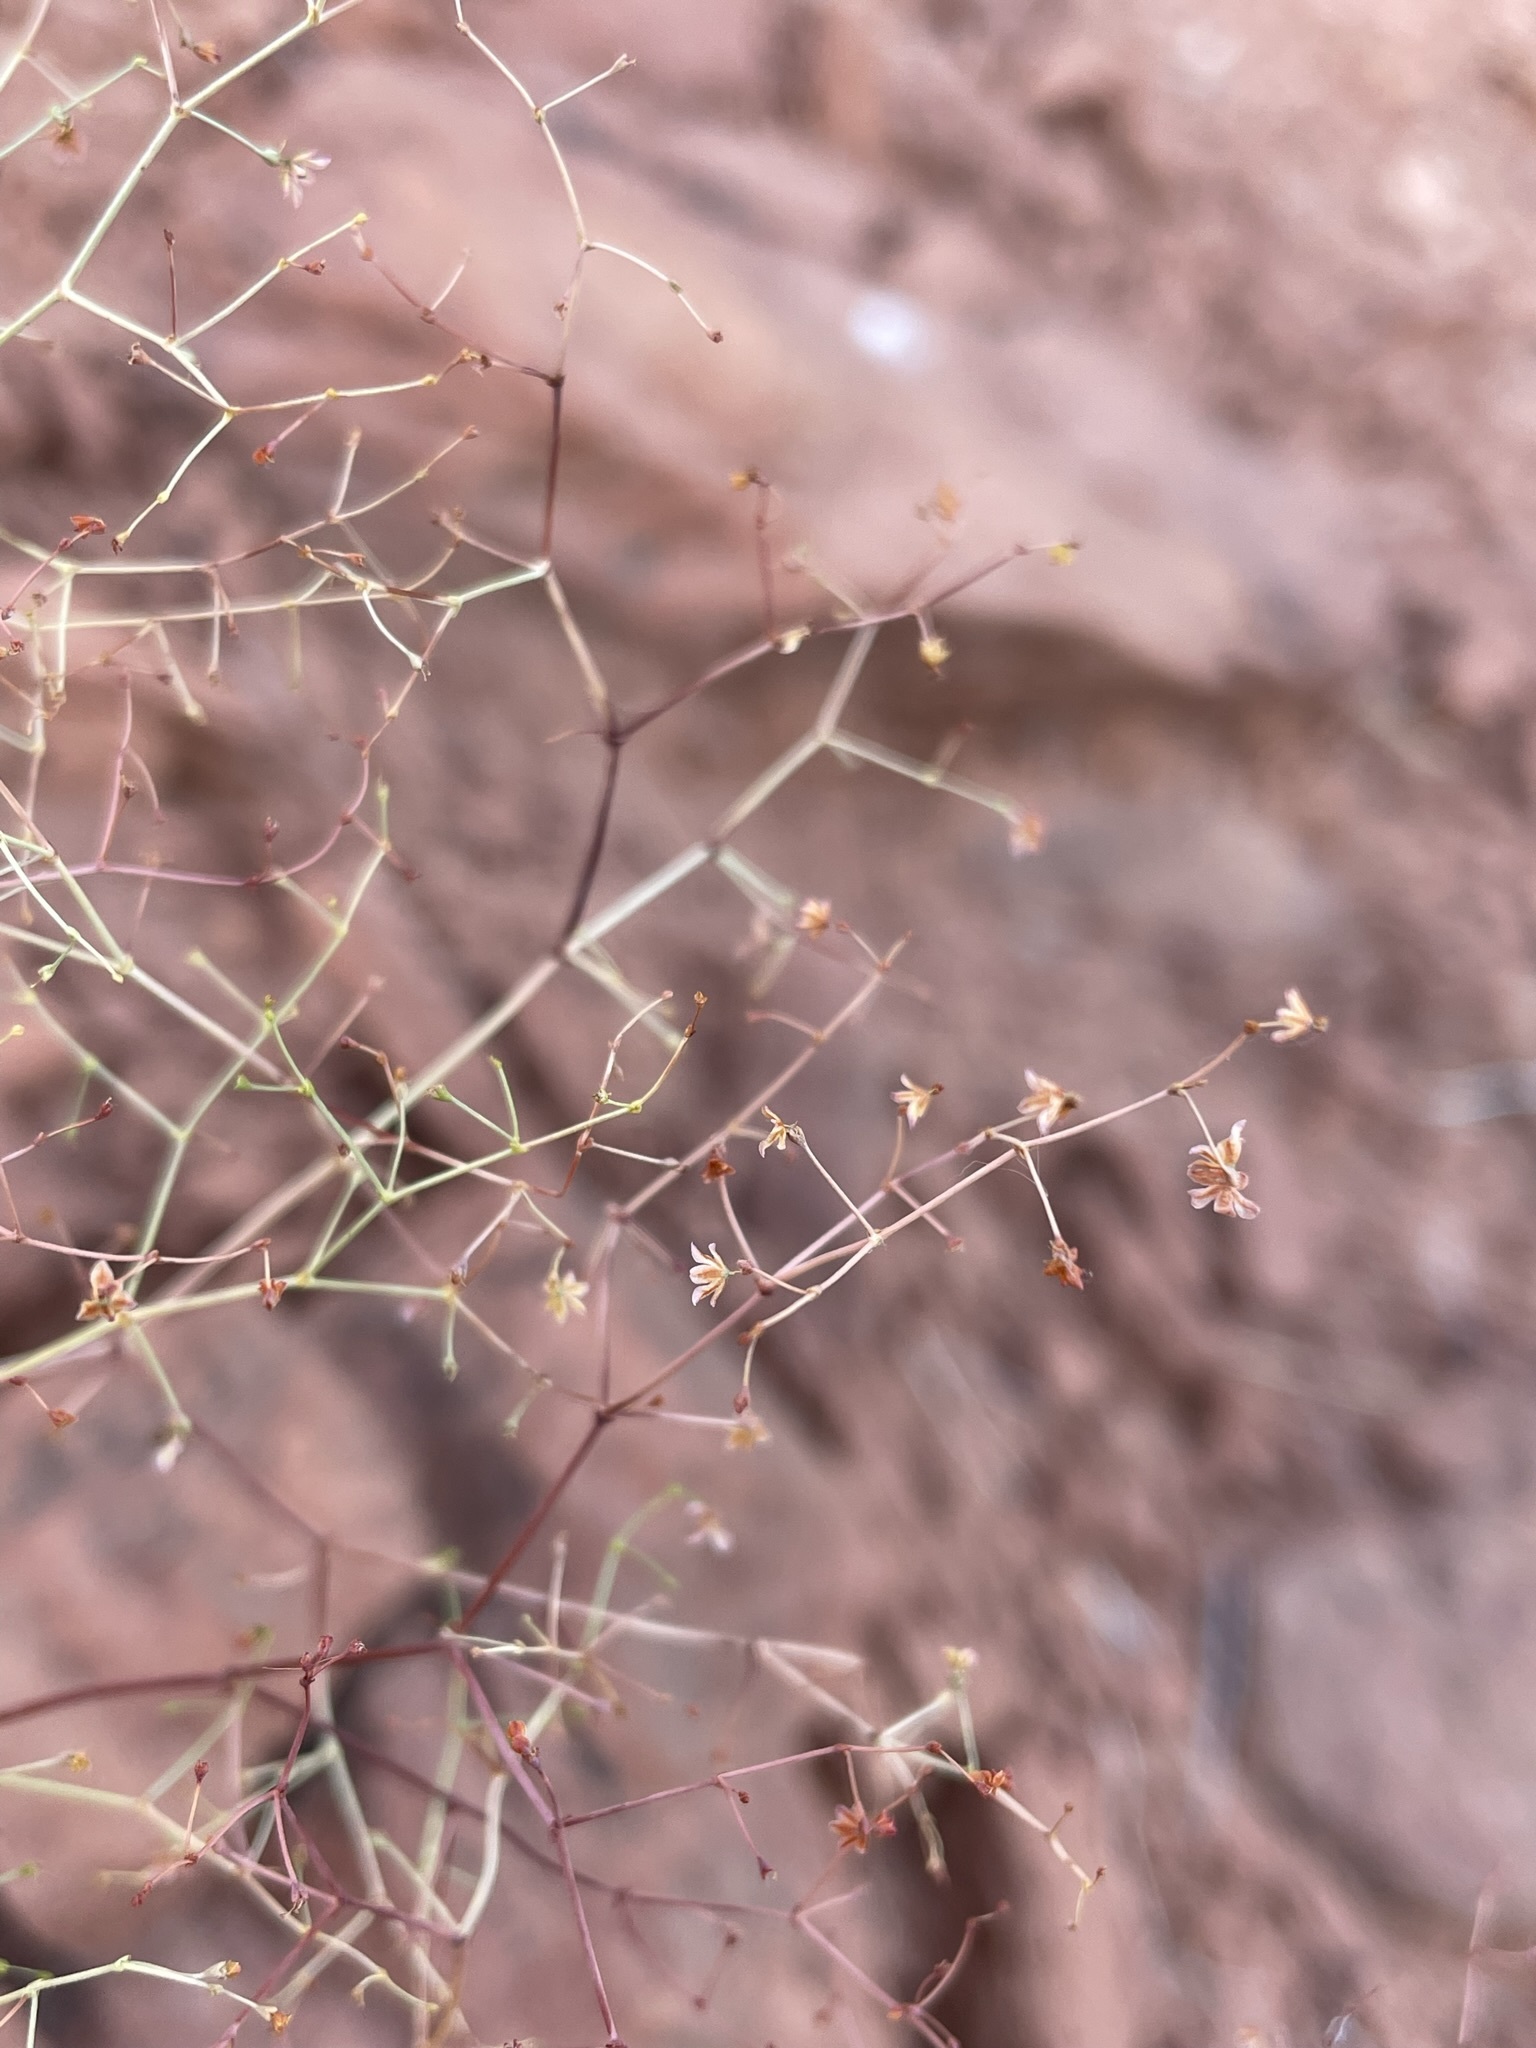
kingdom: Plantae
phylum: Tracheophyta
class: Magnoliopsida
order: Caryophyllales
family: Polygonaceae
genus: Eriogonum
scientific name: Eriogonum wetherillii
